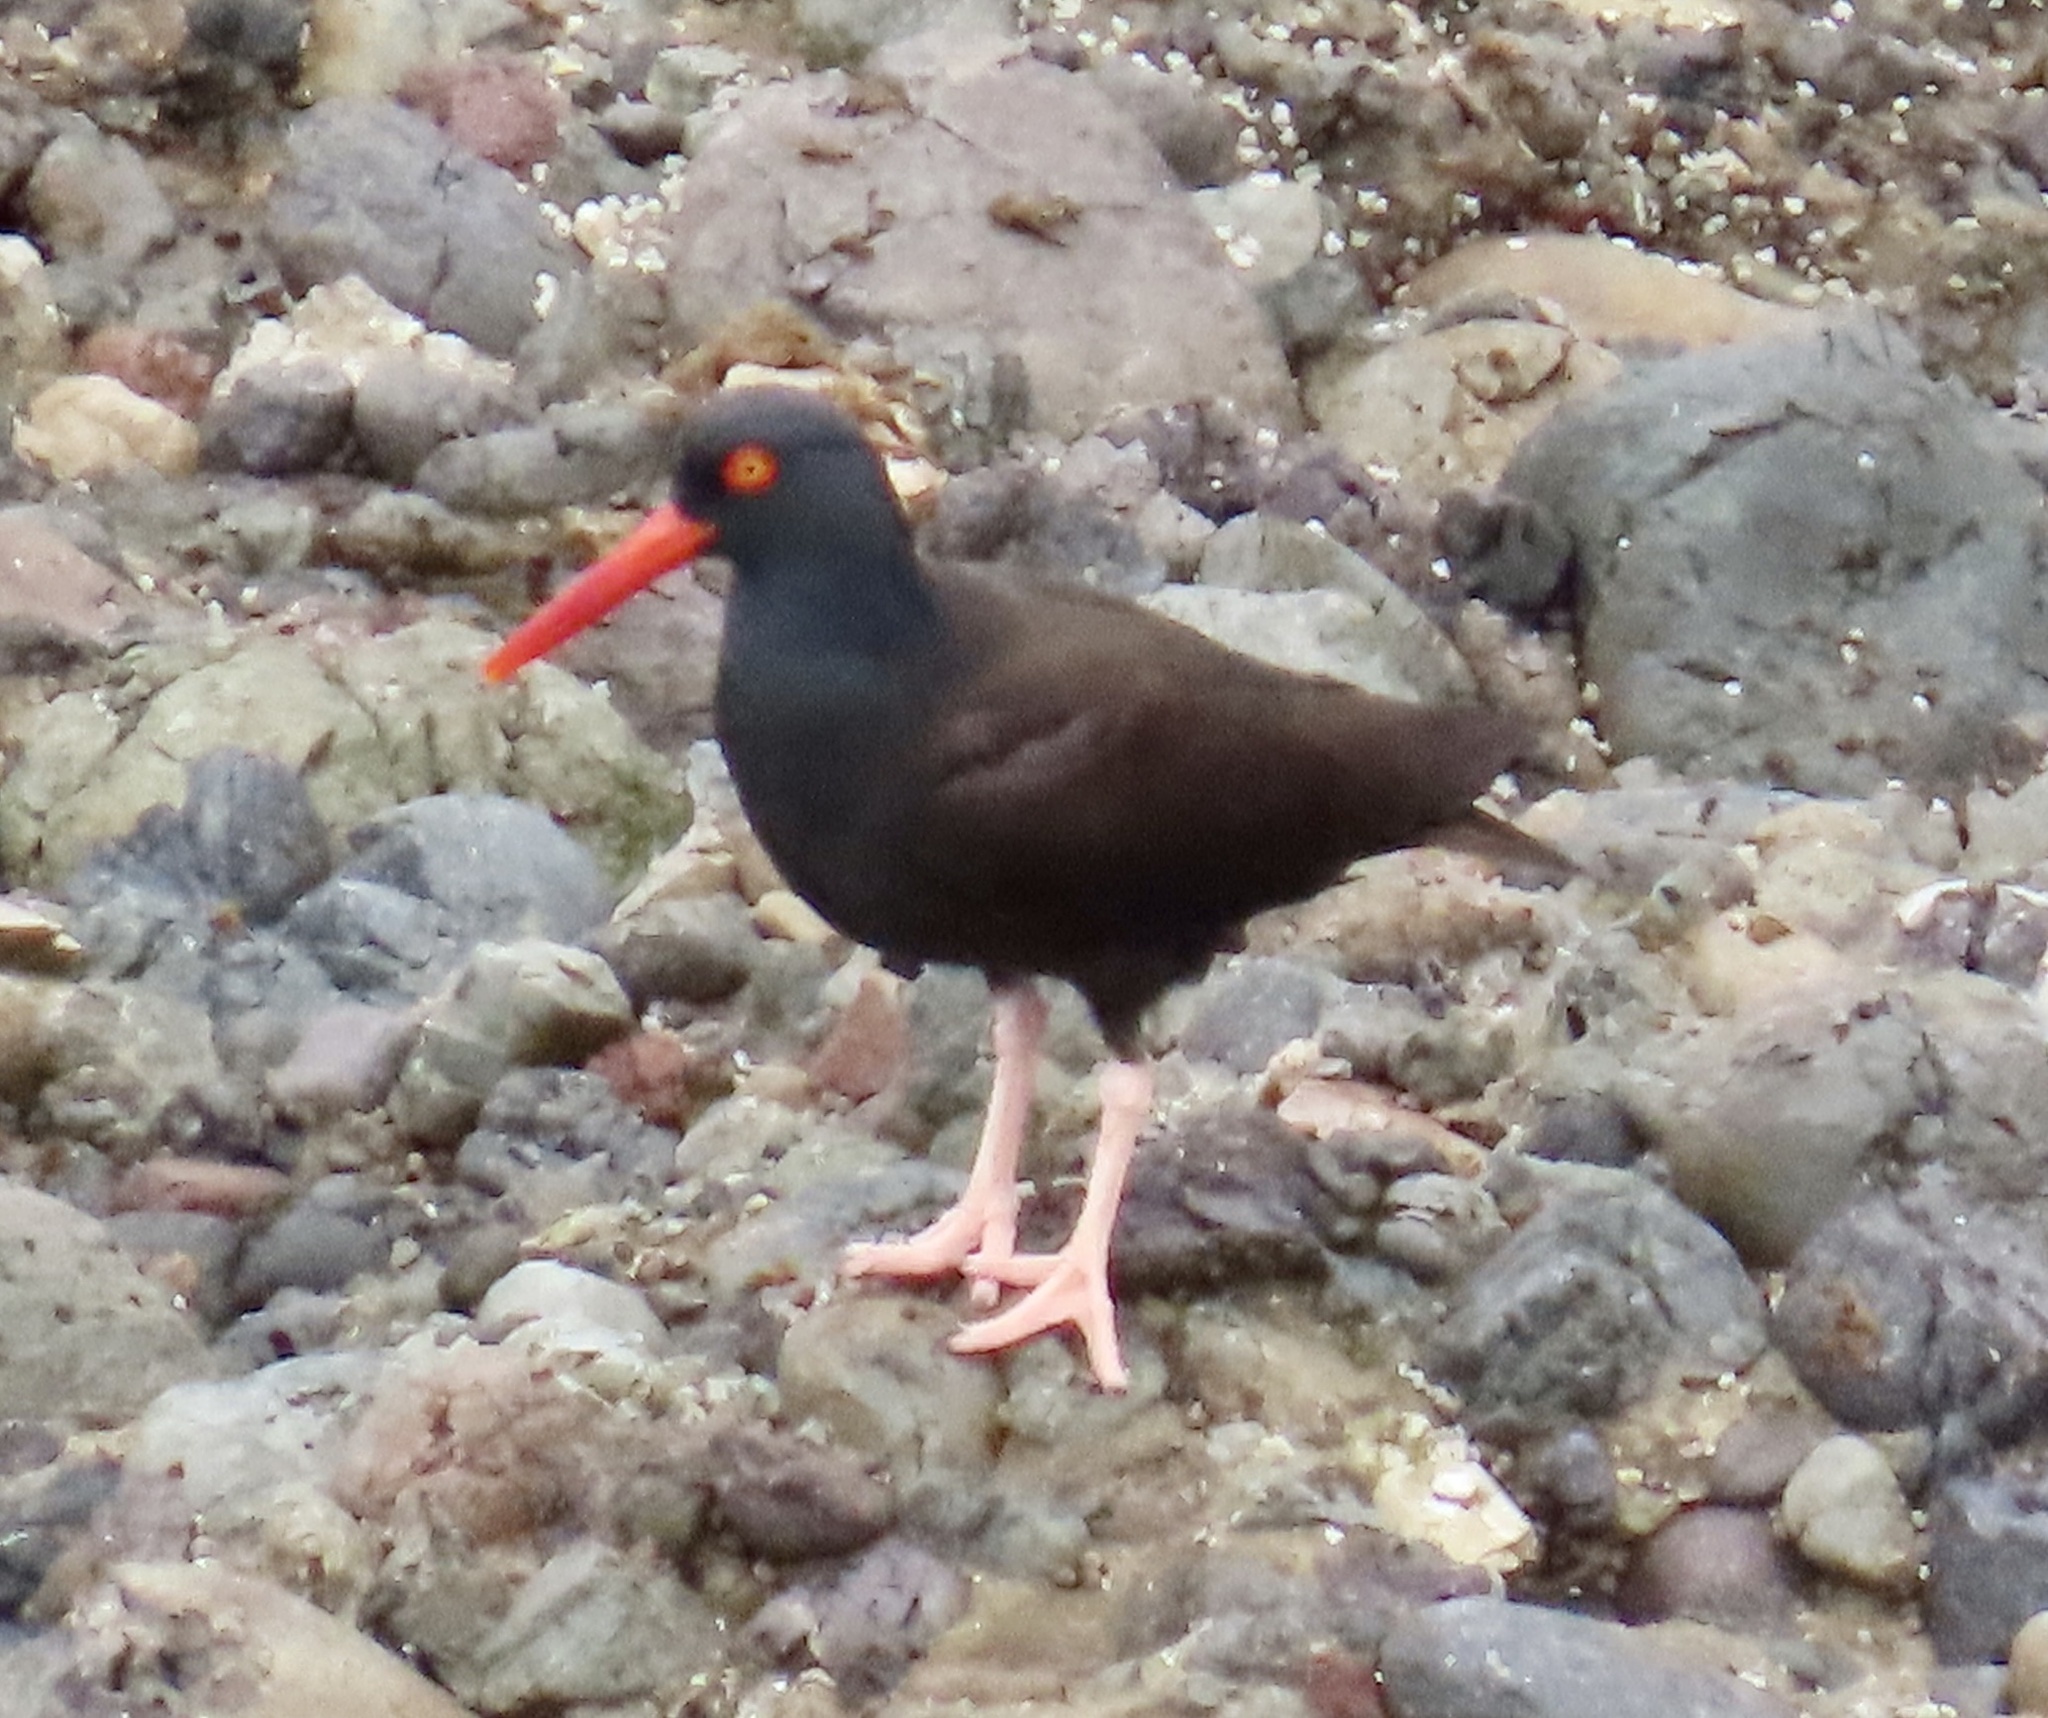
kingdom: Animalia
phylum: Chordata
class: Aves
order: Charadriiformes
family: Haematopodidae
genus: Haematopus
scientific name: Haematopus bachmani
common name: Black oystercatcher
